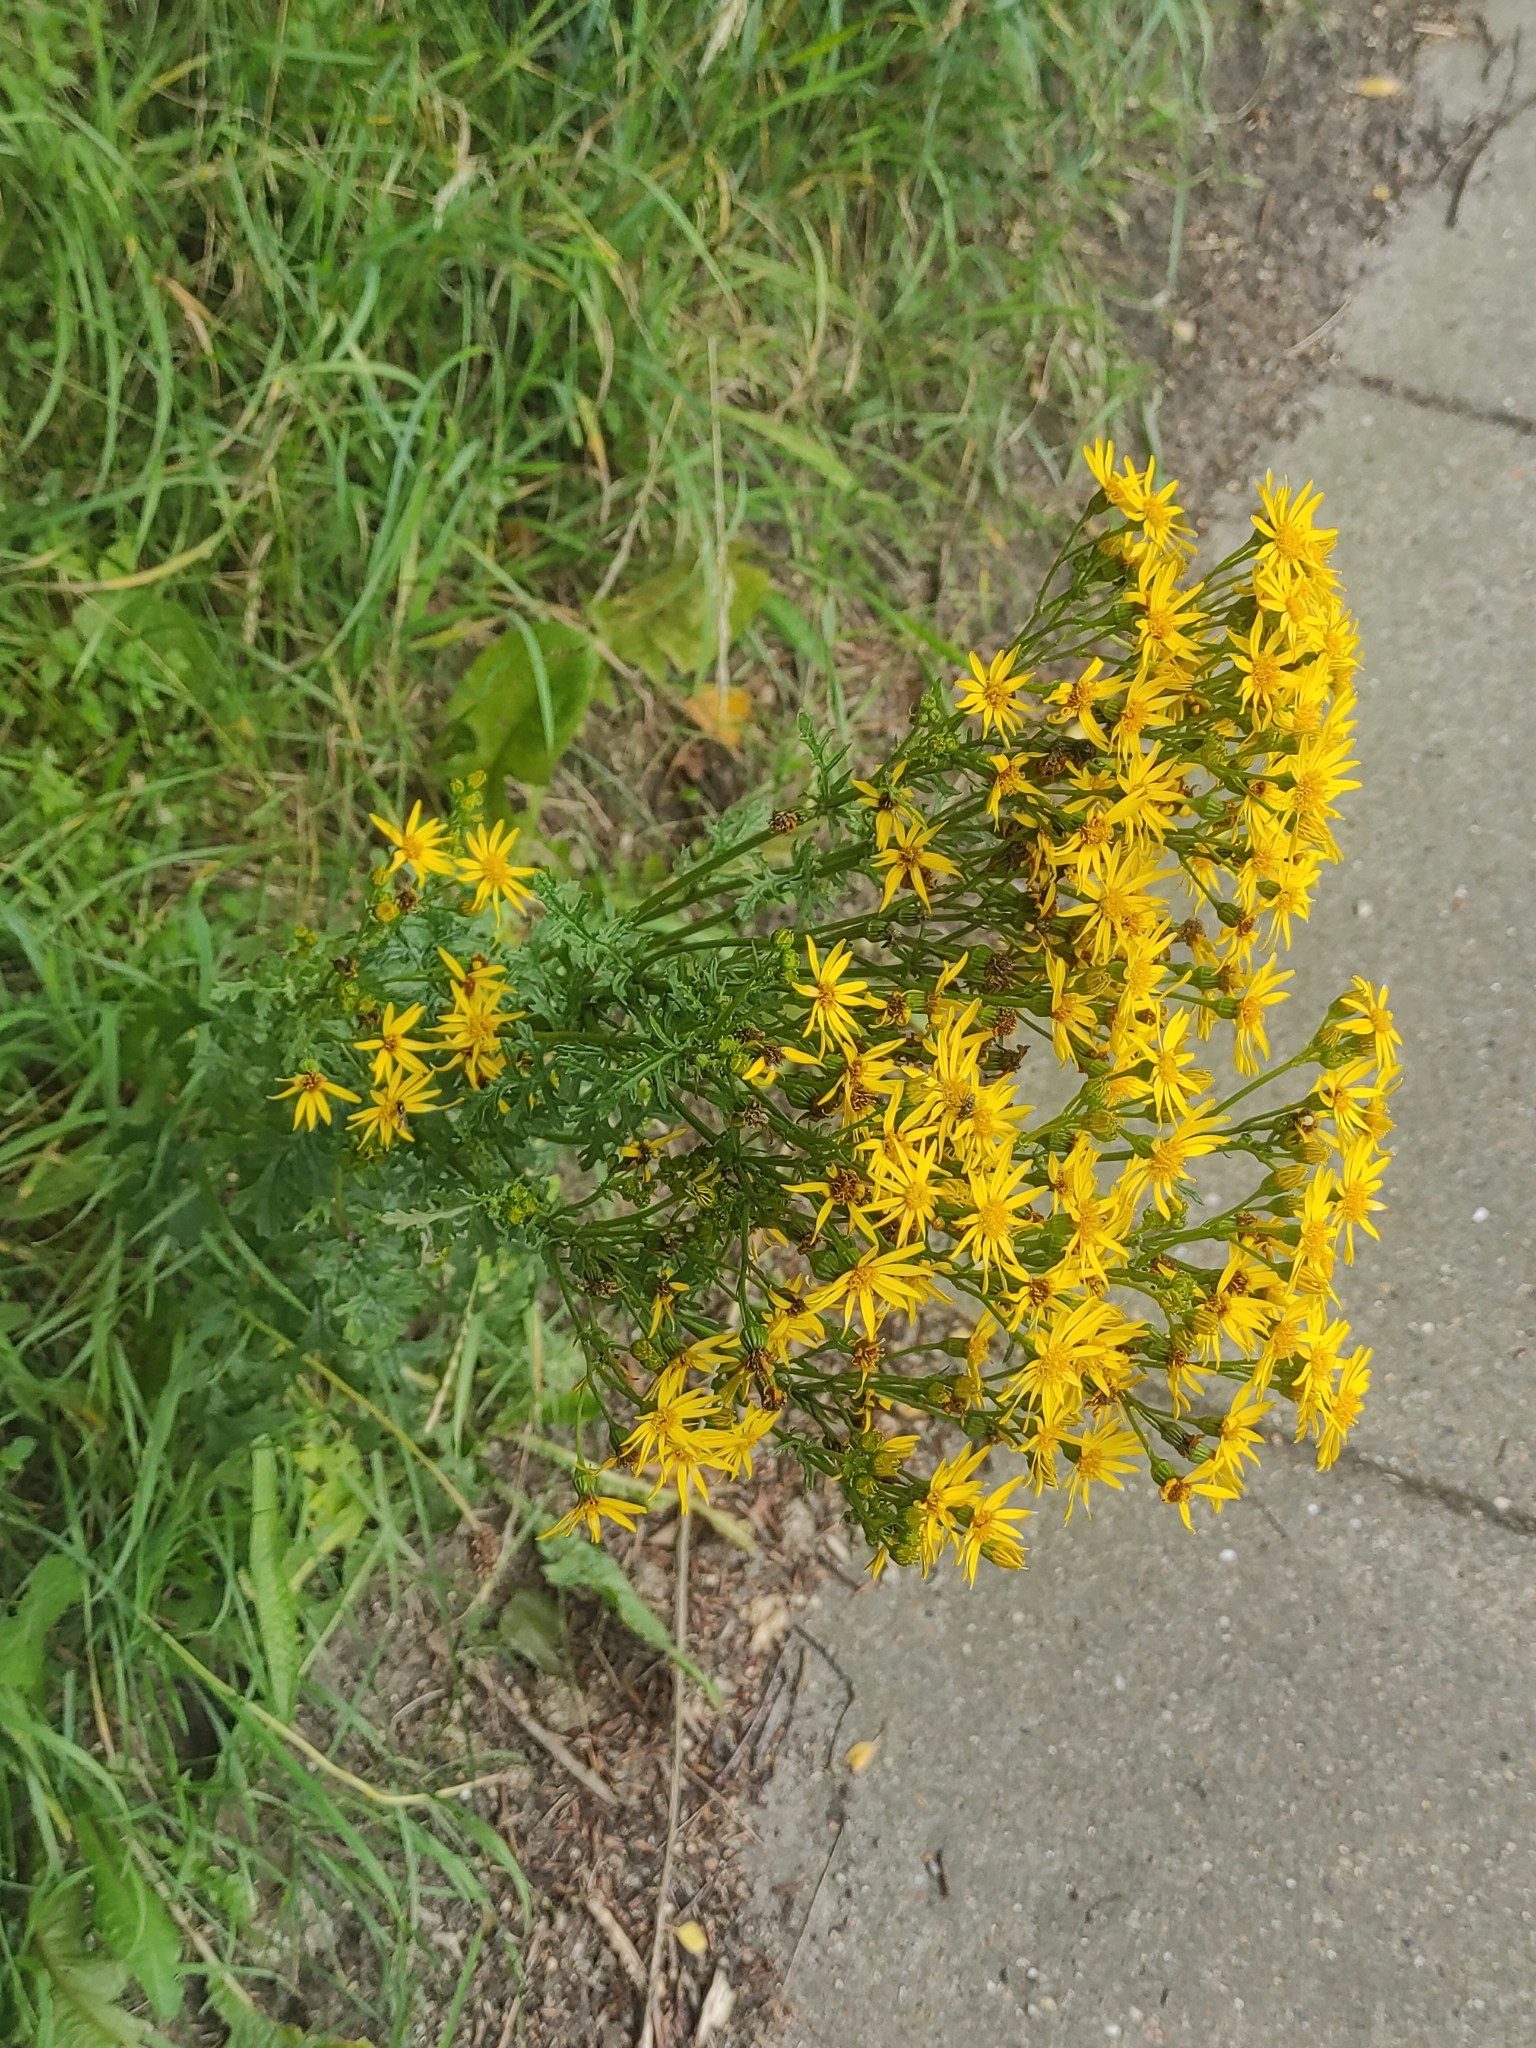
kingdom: Plantae
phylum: Tracheophyta
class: Magnoliopsida
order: Asterales
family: Asteraceae
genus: Jacobaea
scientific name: Jacobaea vulgaris
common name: Stinking willie
